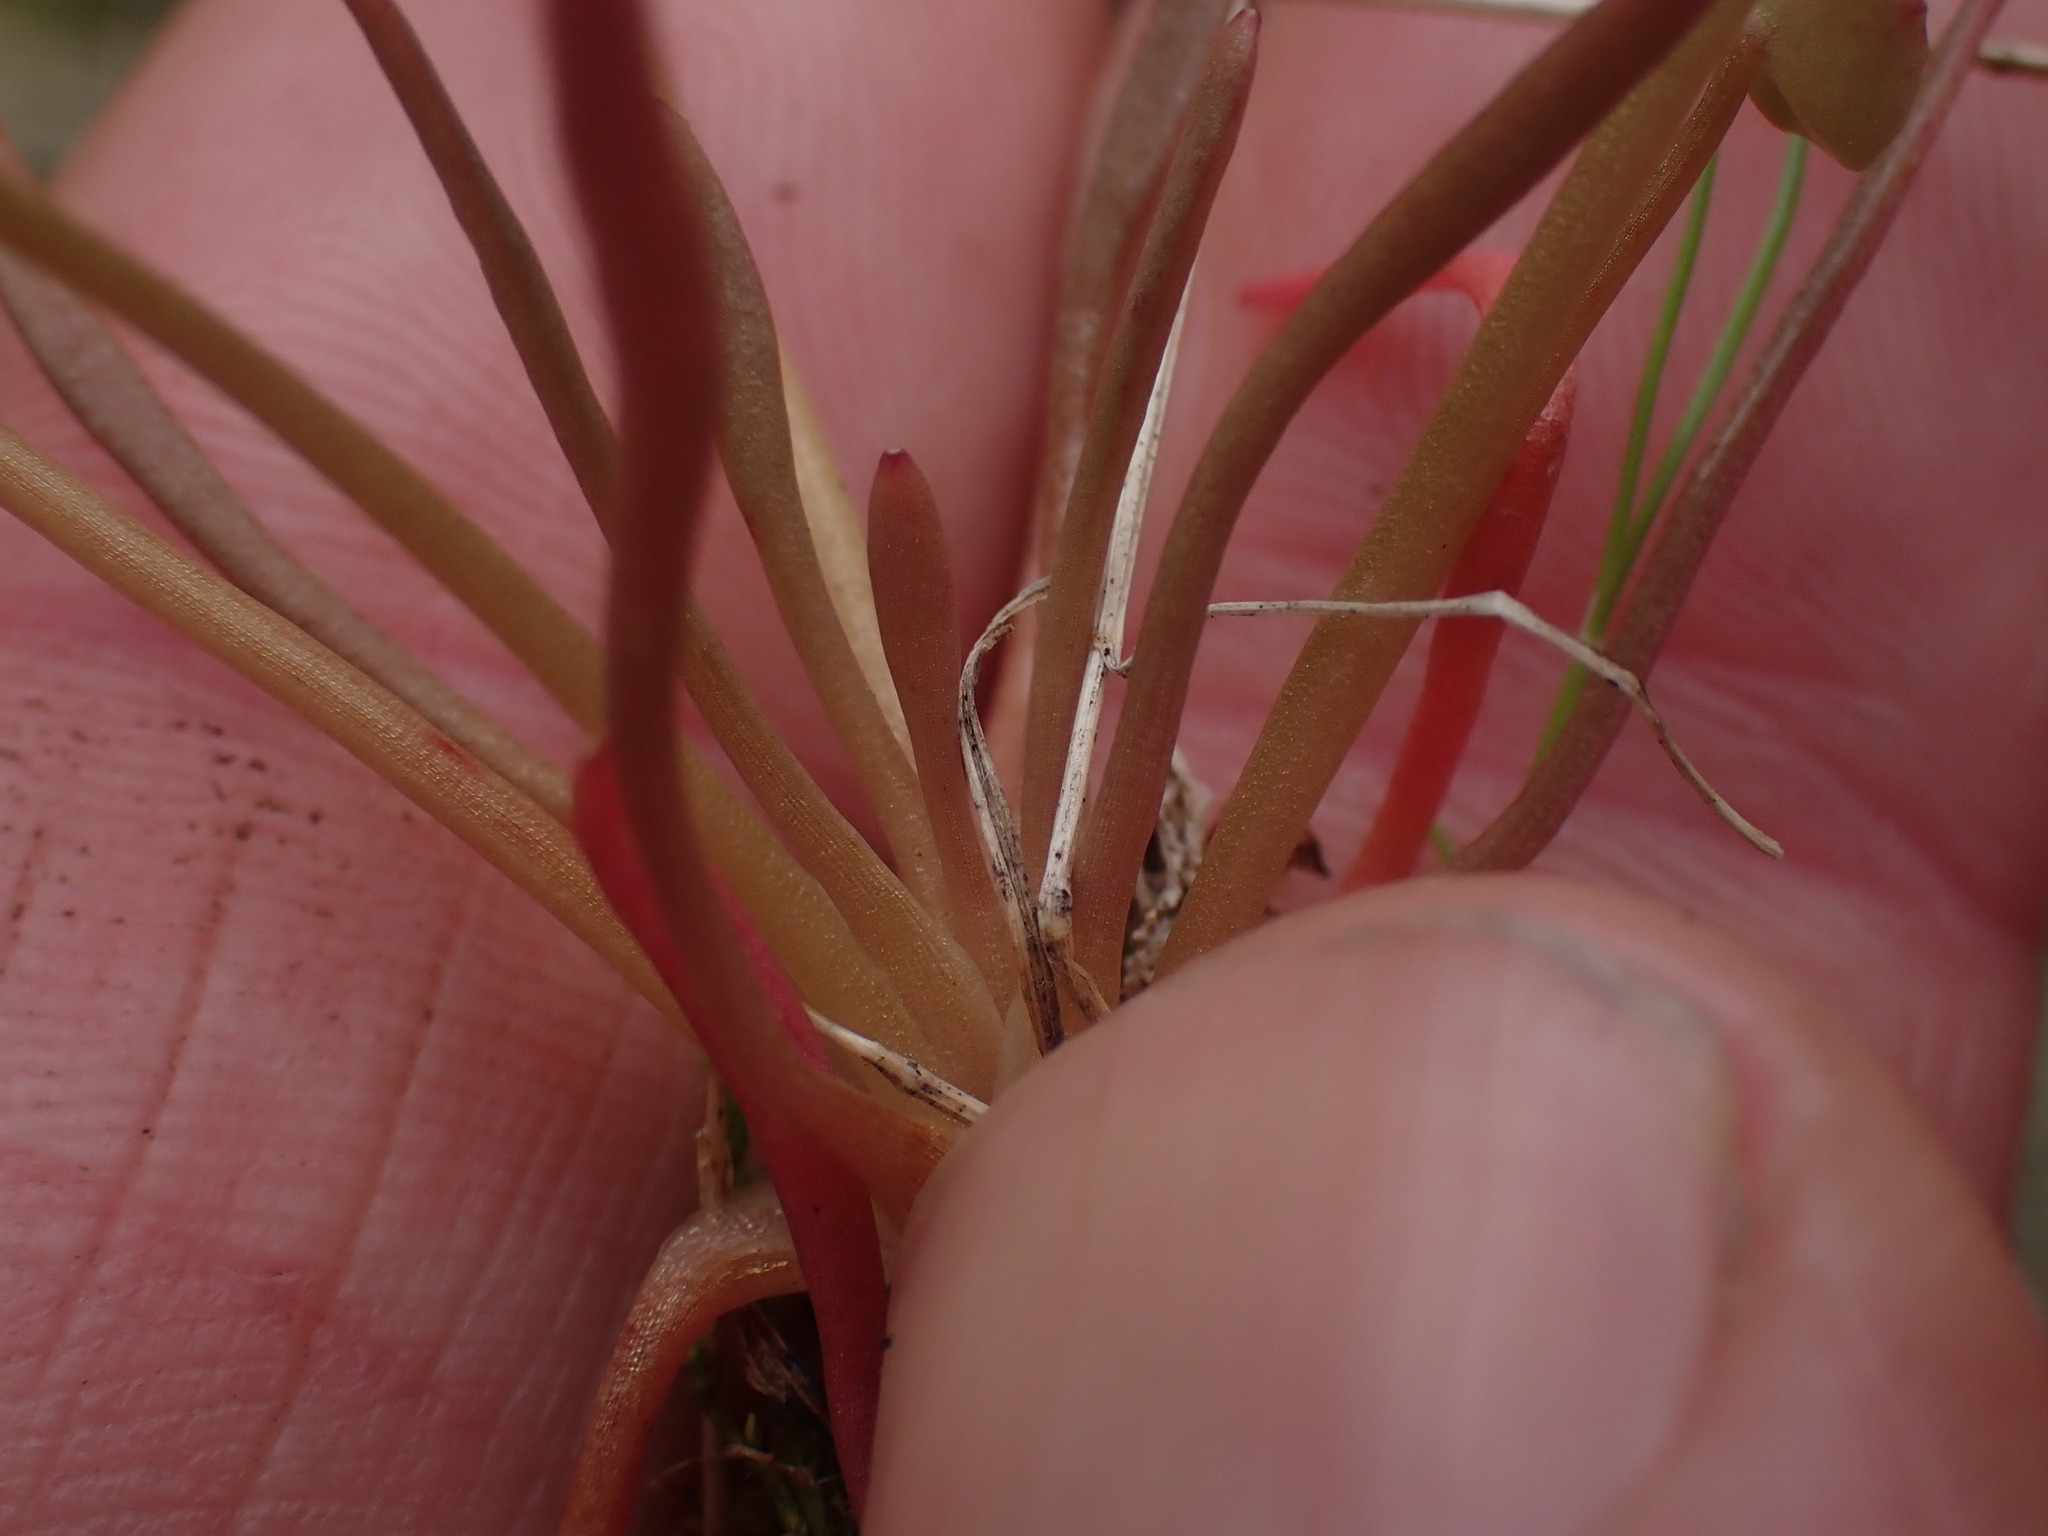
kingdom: Plantae
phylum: Tracheophyta
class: Magnoliopsida
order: Caryophyllales
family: Montiaceae
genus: Claytonia
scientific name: Claytonia parviflora
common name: Indian-lettuce
